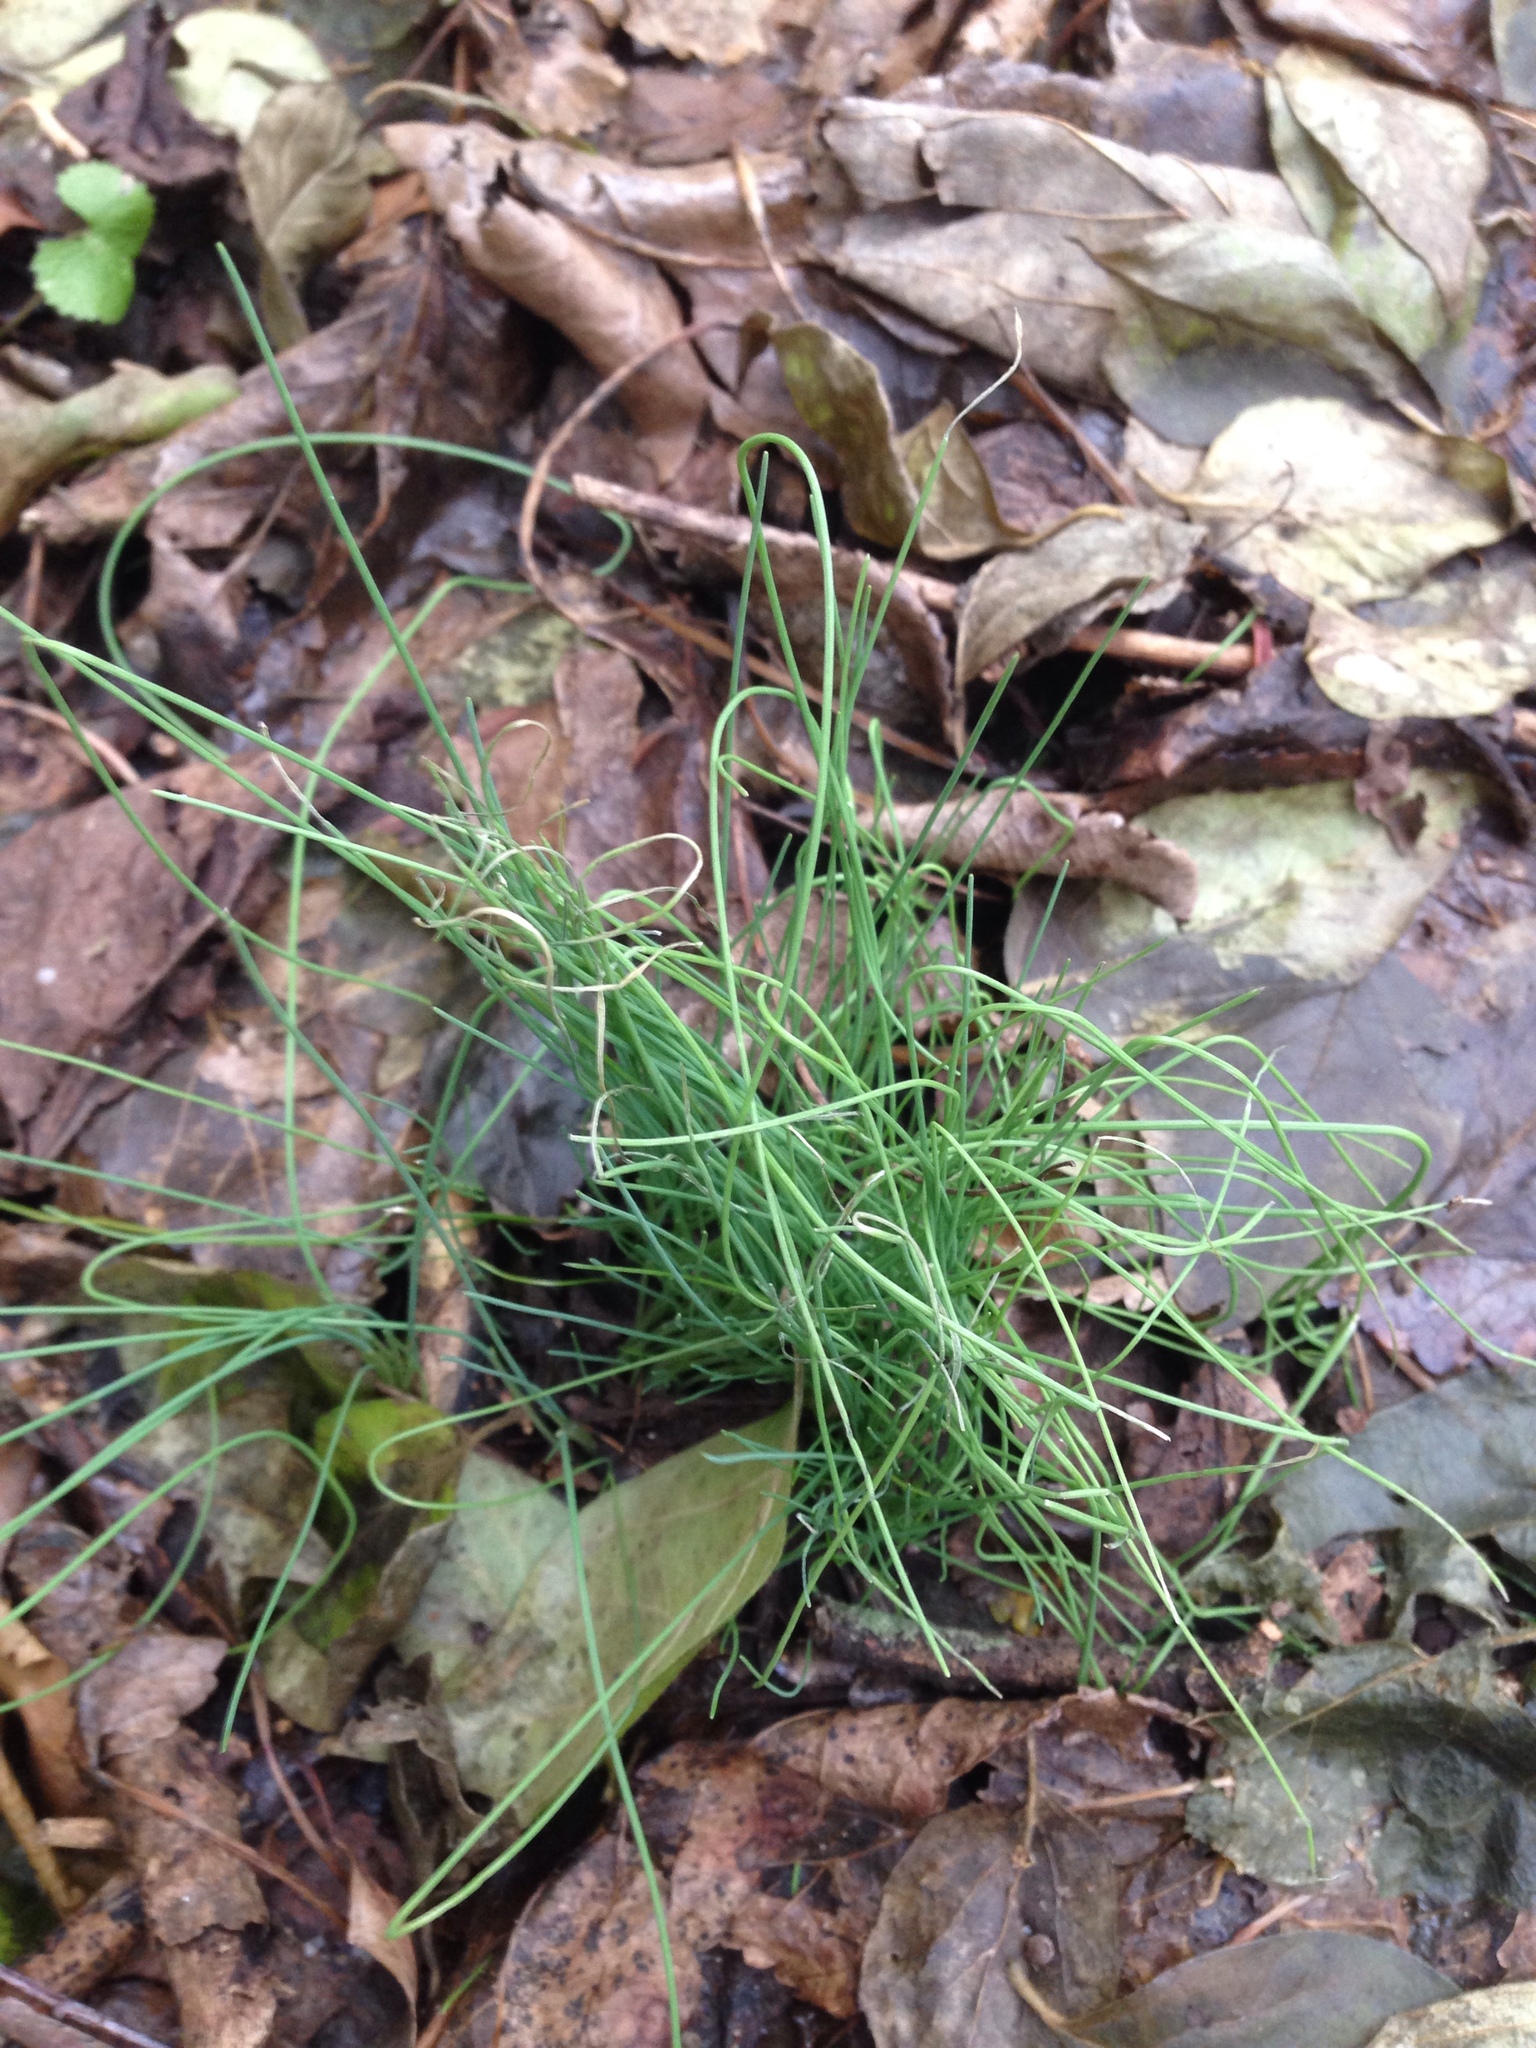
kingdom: Plantae
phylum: Tracheophyta
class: Liliopsida
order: Asparagales
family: Amaryllidaceae
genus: Allium
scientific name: Allium vineale
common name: Crow garlic
